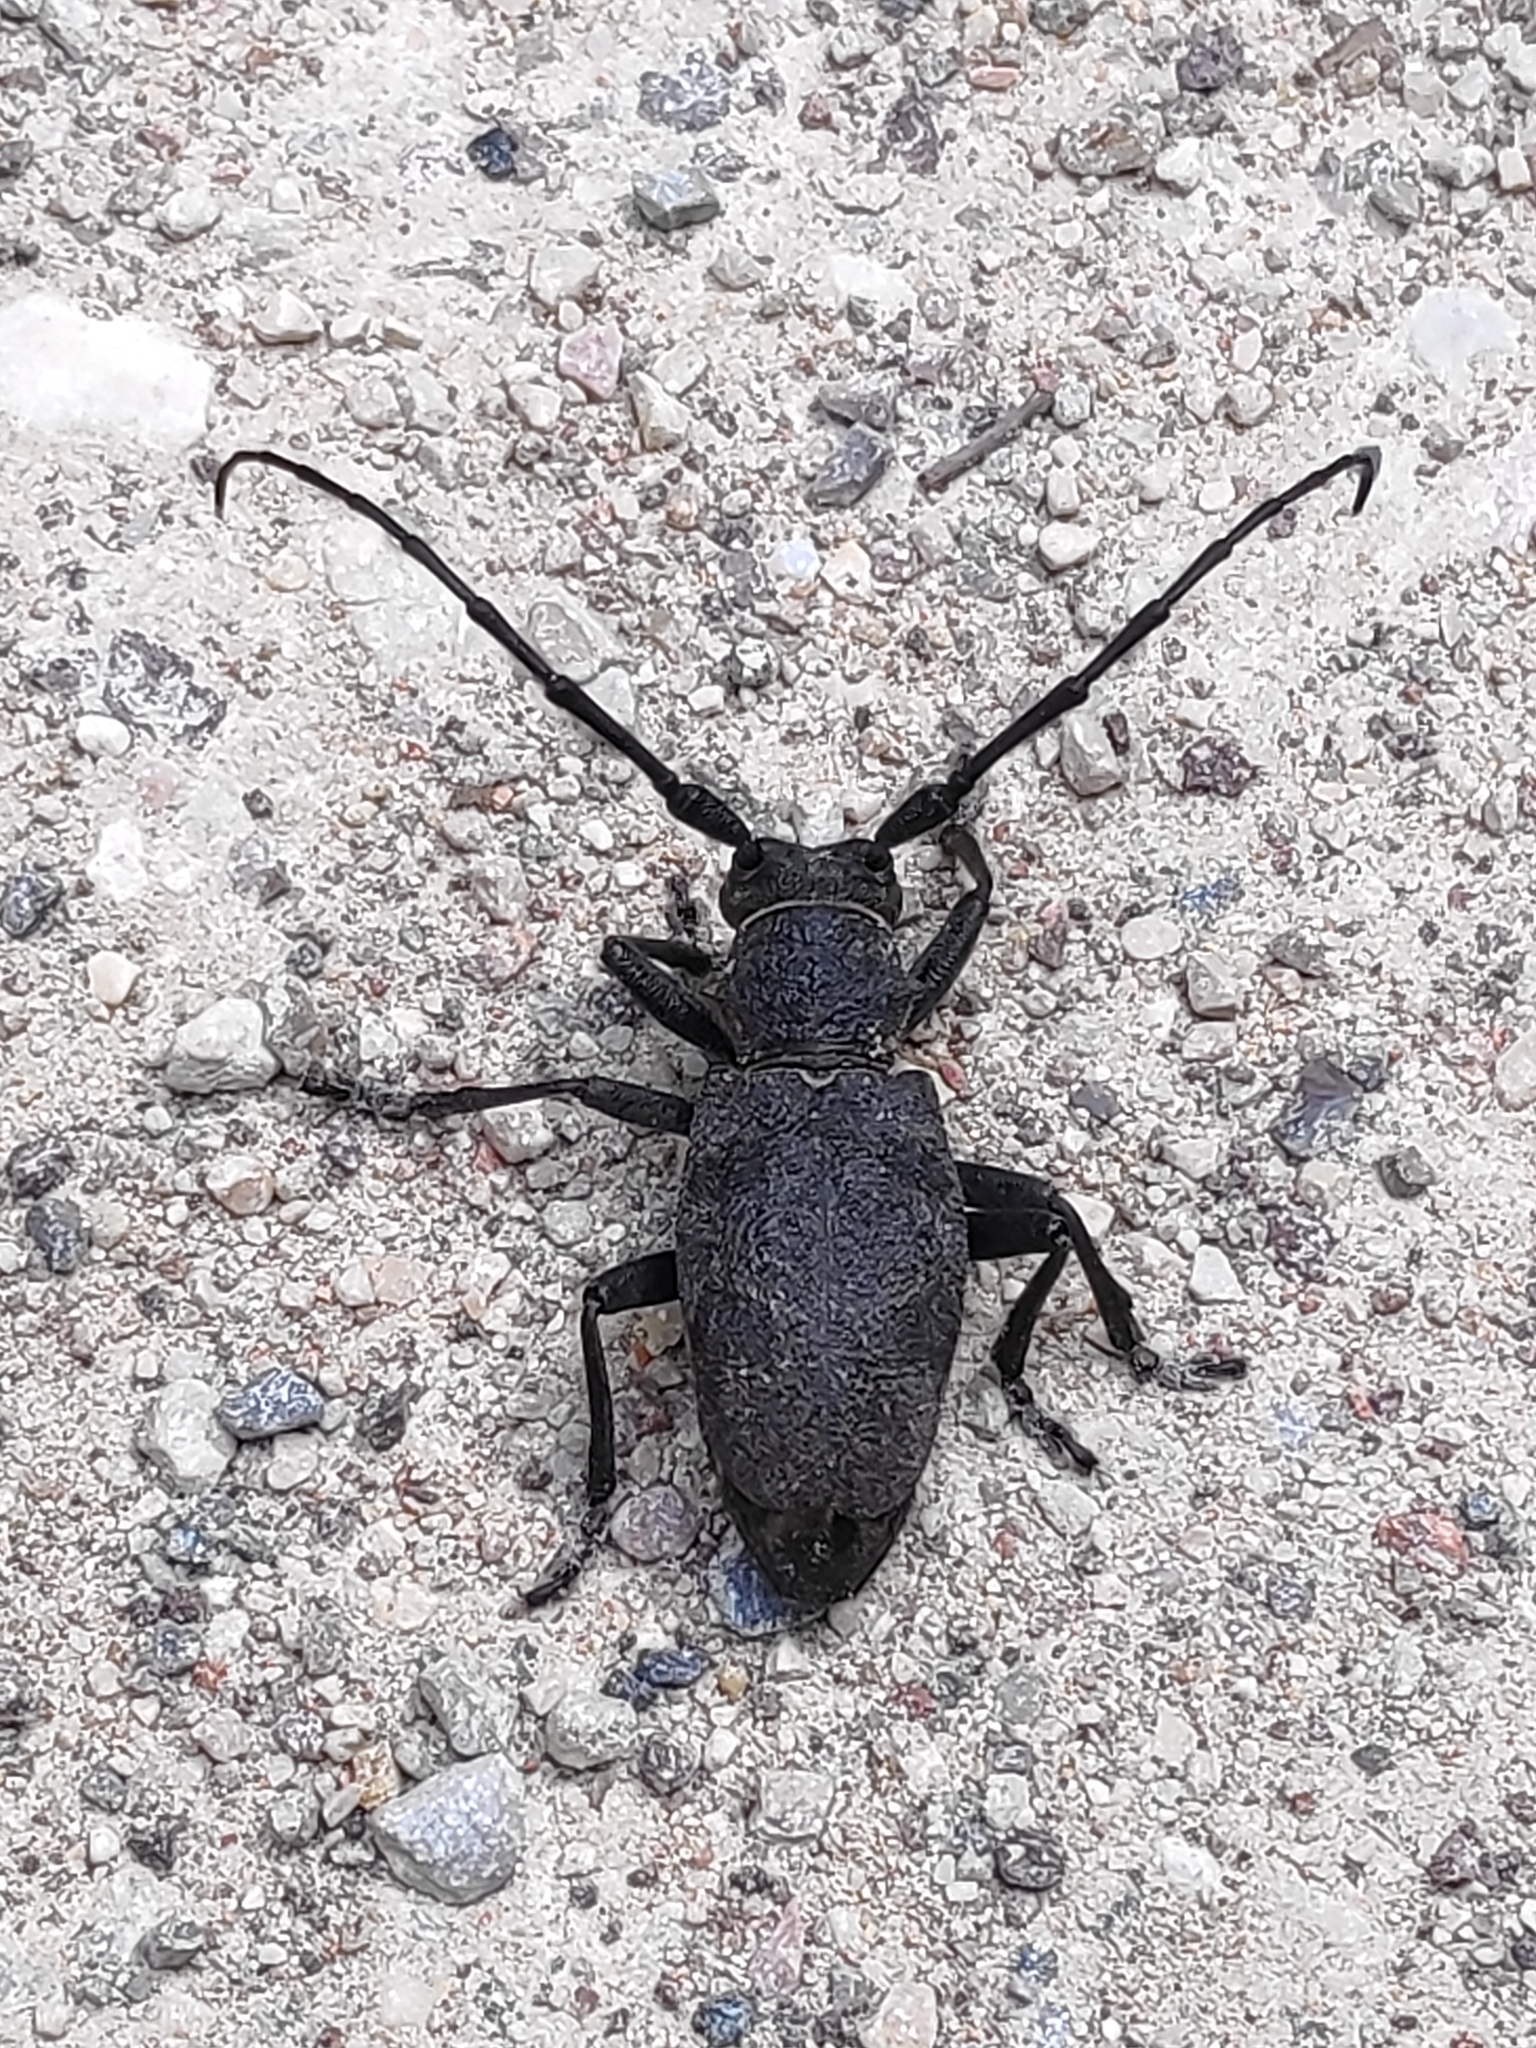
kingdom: Animalia
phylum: Arthropoda
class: Insecta
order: Coleoptera
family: Cerambycidae
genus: Morimus
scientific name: Morimus asper
